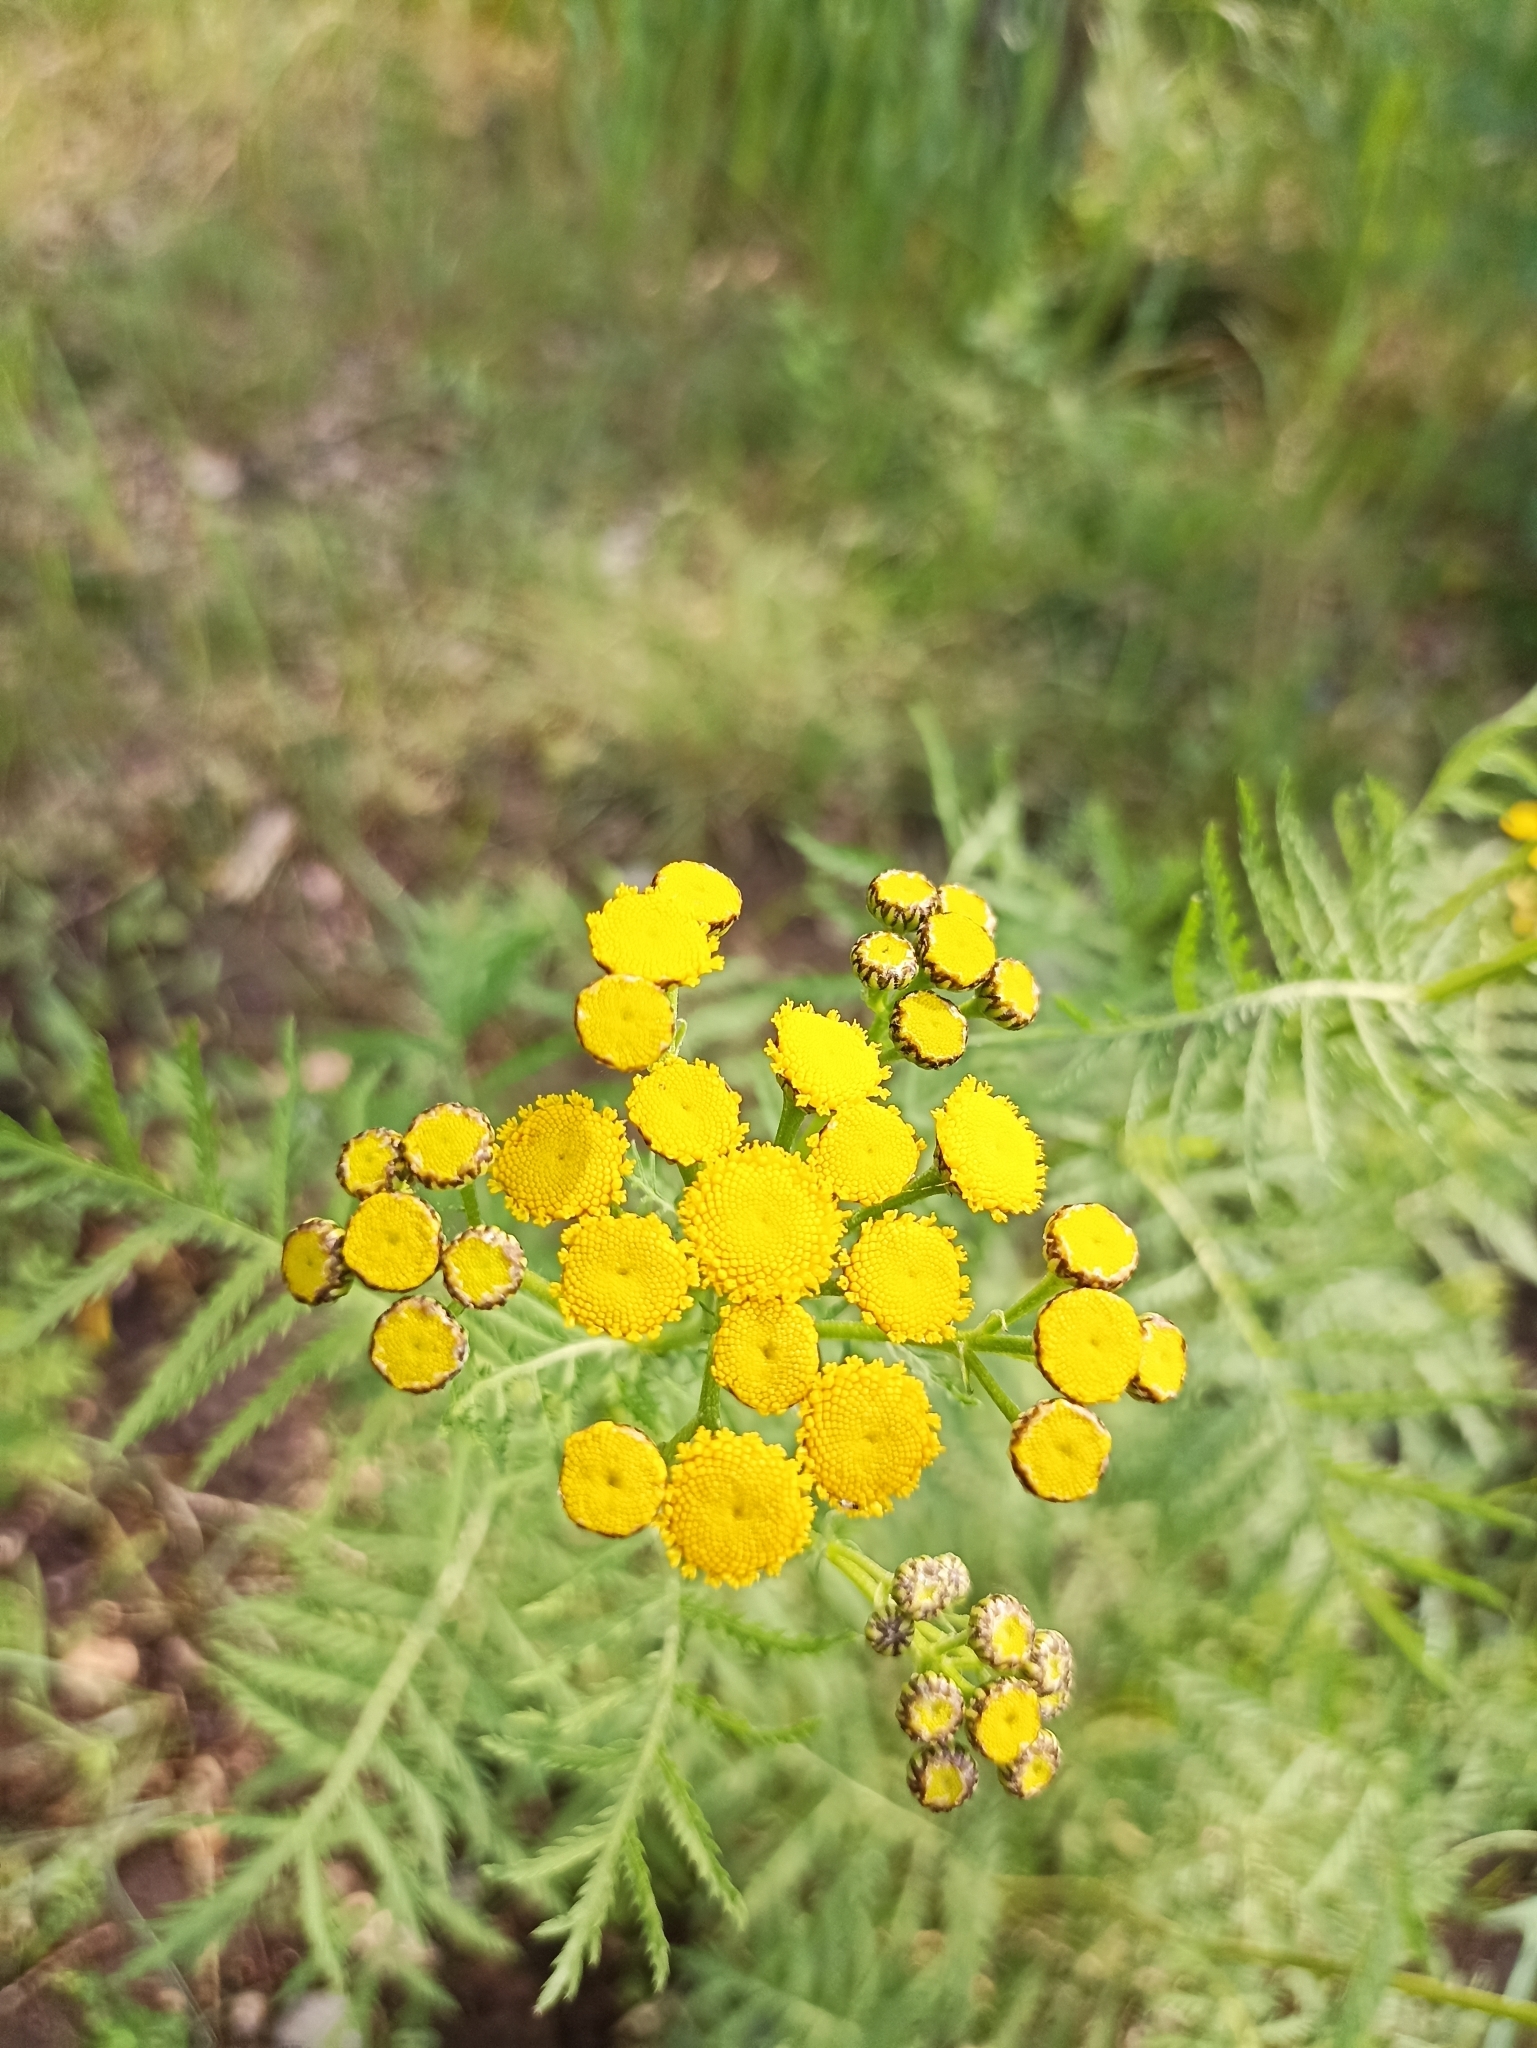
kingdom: Plantae
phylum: Tracheophyta
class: Magnoliopsida
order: Asterales
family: Asteraceae
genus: Tanacetum
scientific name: Tanacetum vulgare
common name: Common tansy
